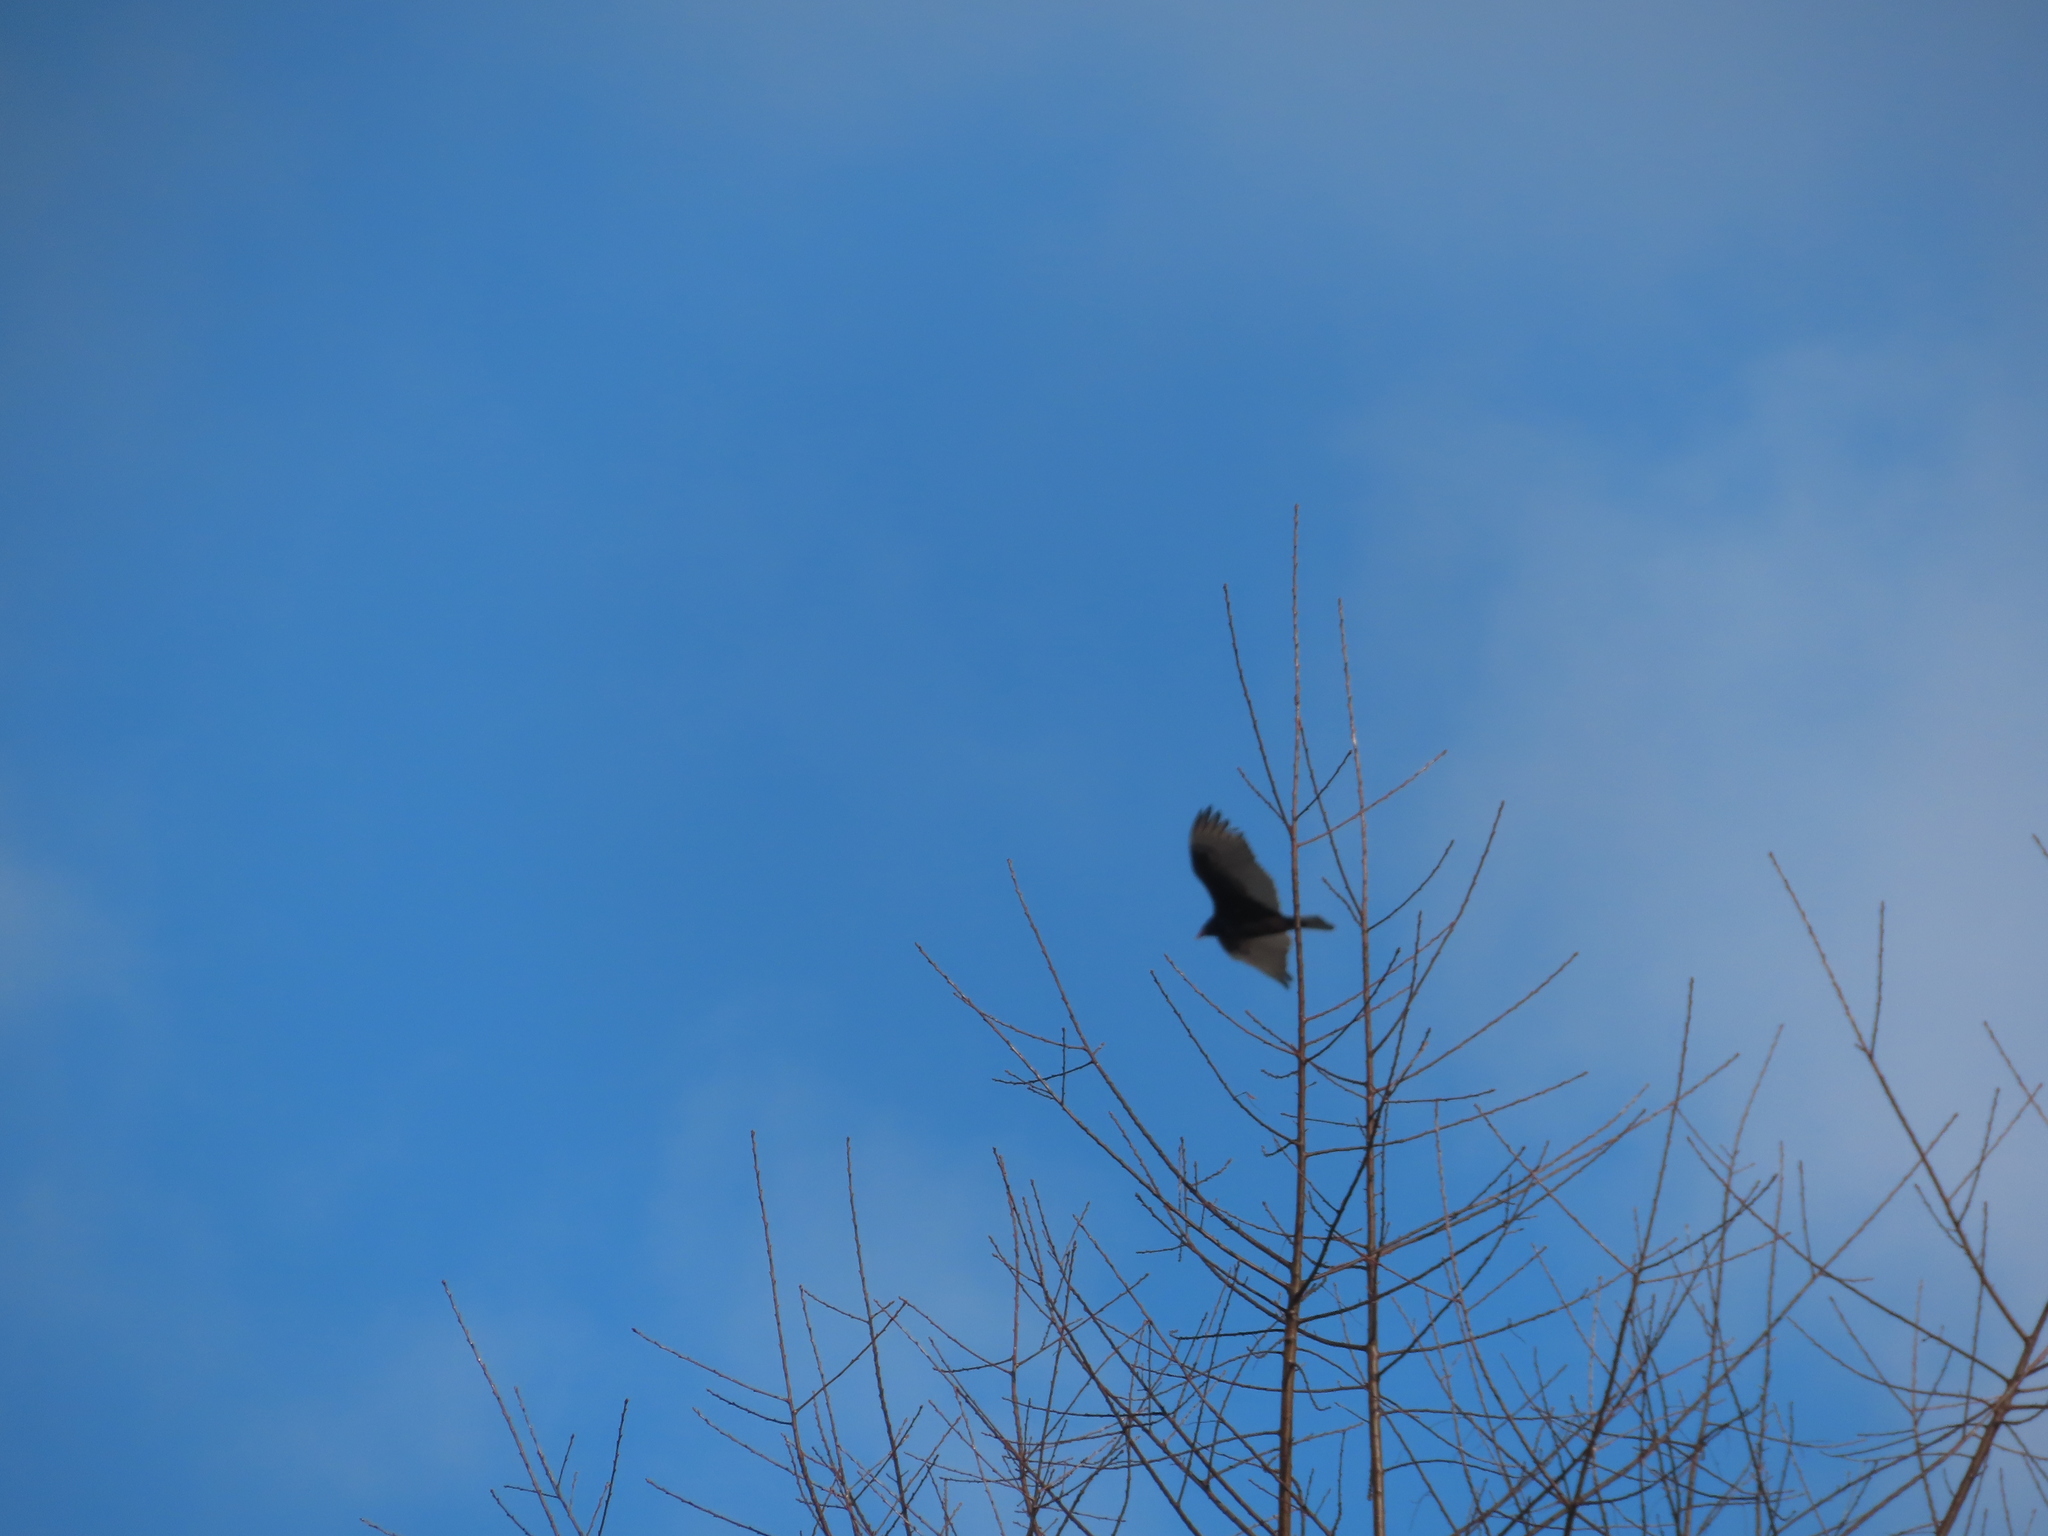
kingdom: Animalia
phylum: Chordata
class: Aves
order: Accipitriformes
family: Cathartidae
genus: Cathartes
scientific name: Cathartes aura
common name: Turkey vulture
